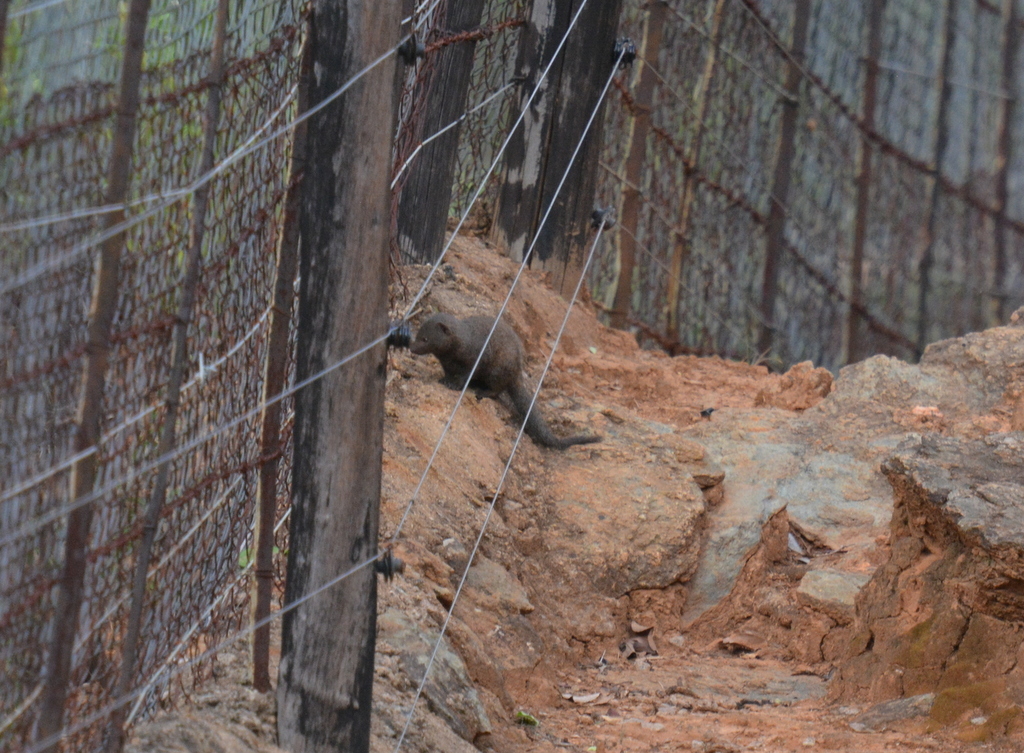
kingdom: Animalia
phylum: Chordata
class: Mammalia
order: Carnivora
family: Herpestidae
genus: Helogale
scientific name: Helogale parvula
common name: Common dwarf mongoose
